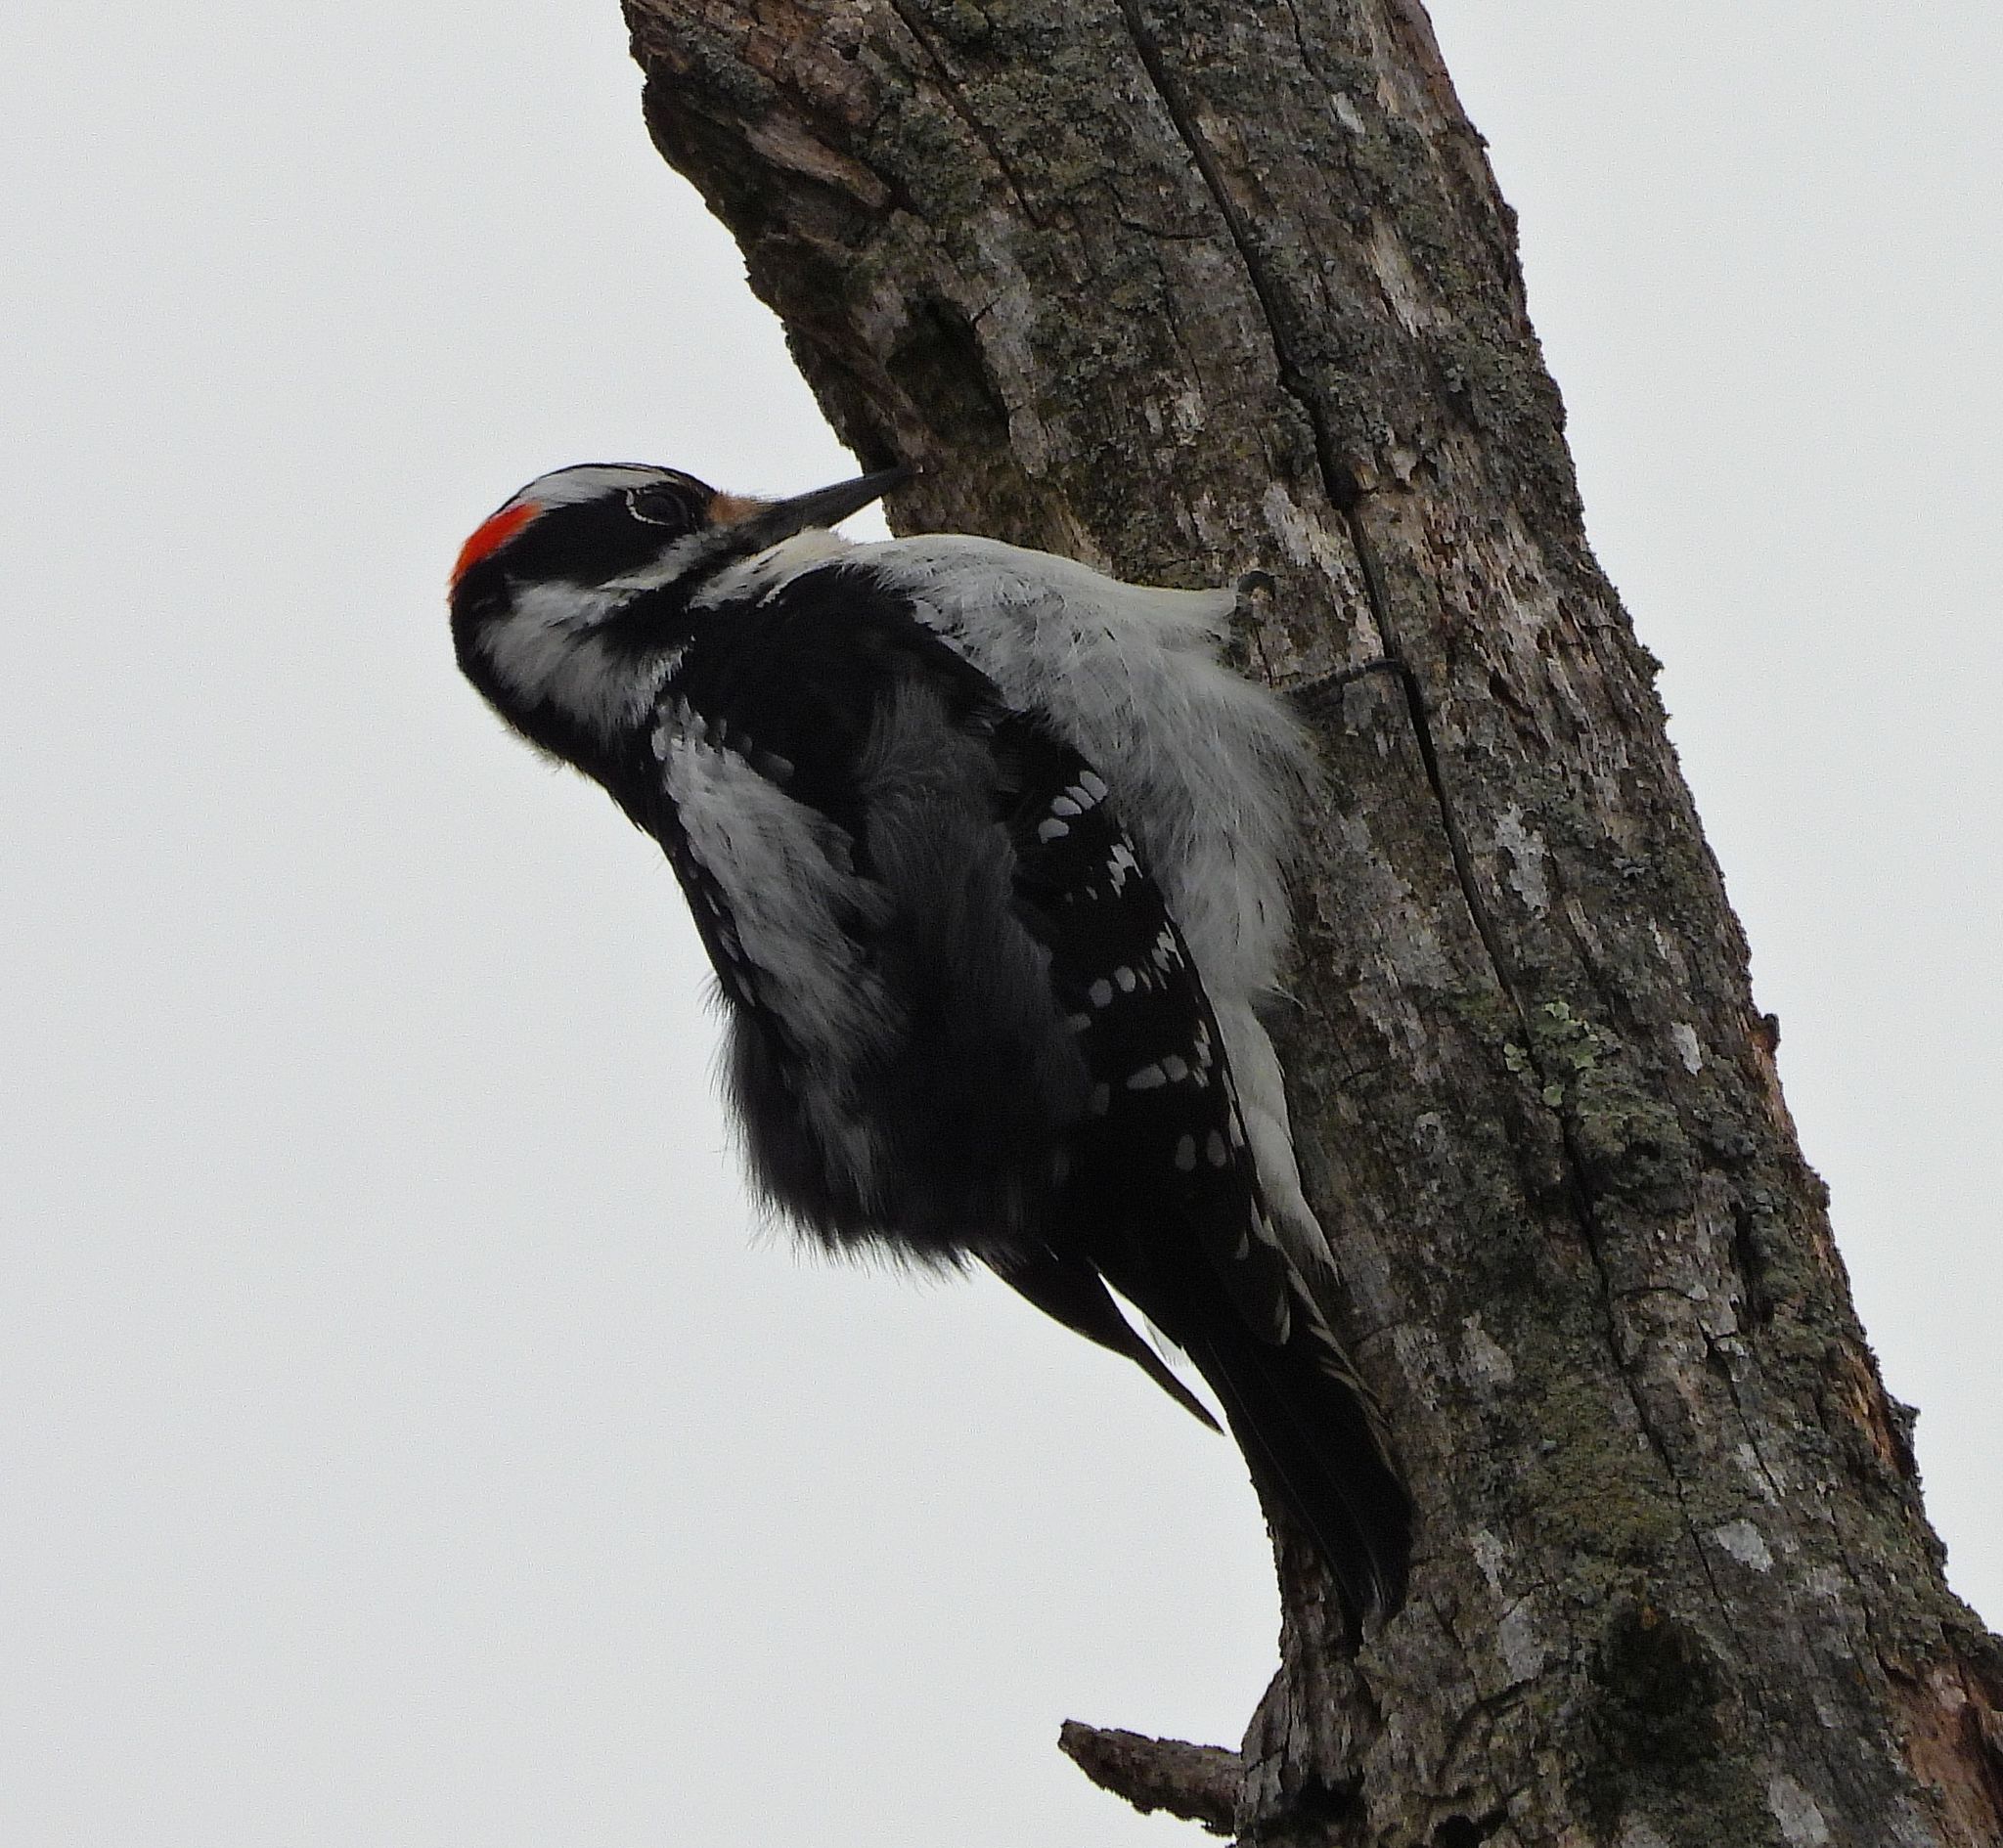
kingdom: Animalia
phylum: Chordata
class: Aves
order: Piciformes
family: Picidae
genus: Leuconotopicus
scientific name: Leuconotopicus villosus
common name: Hairy woodpecker
